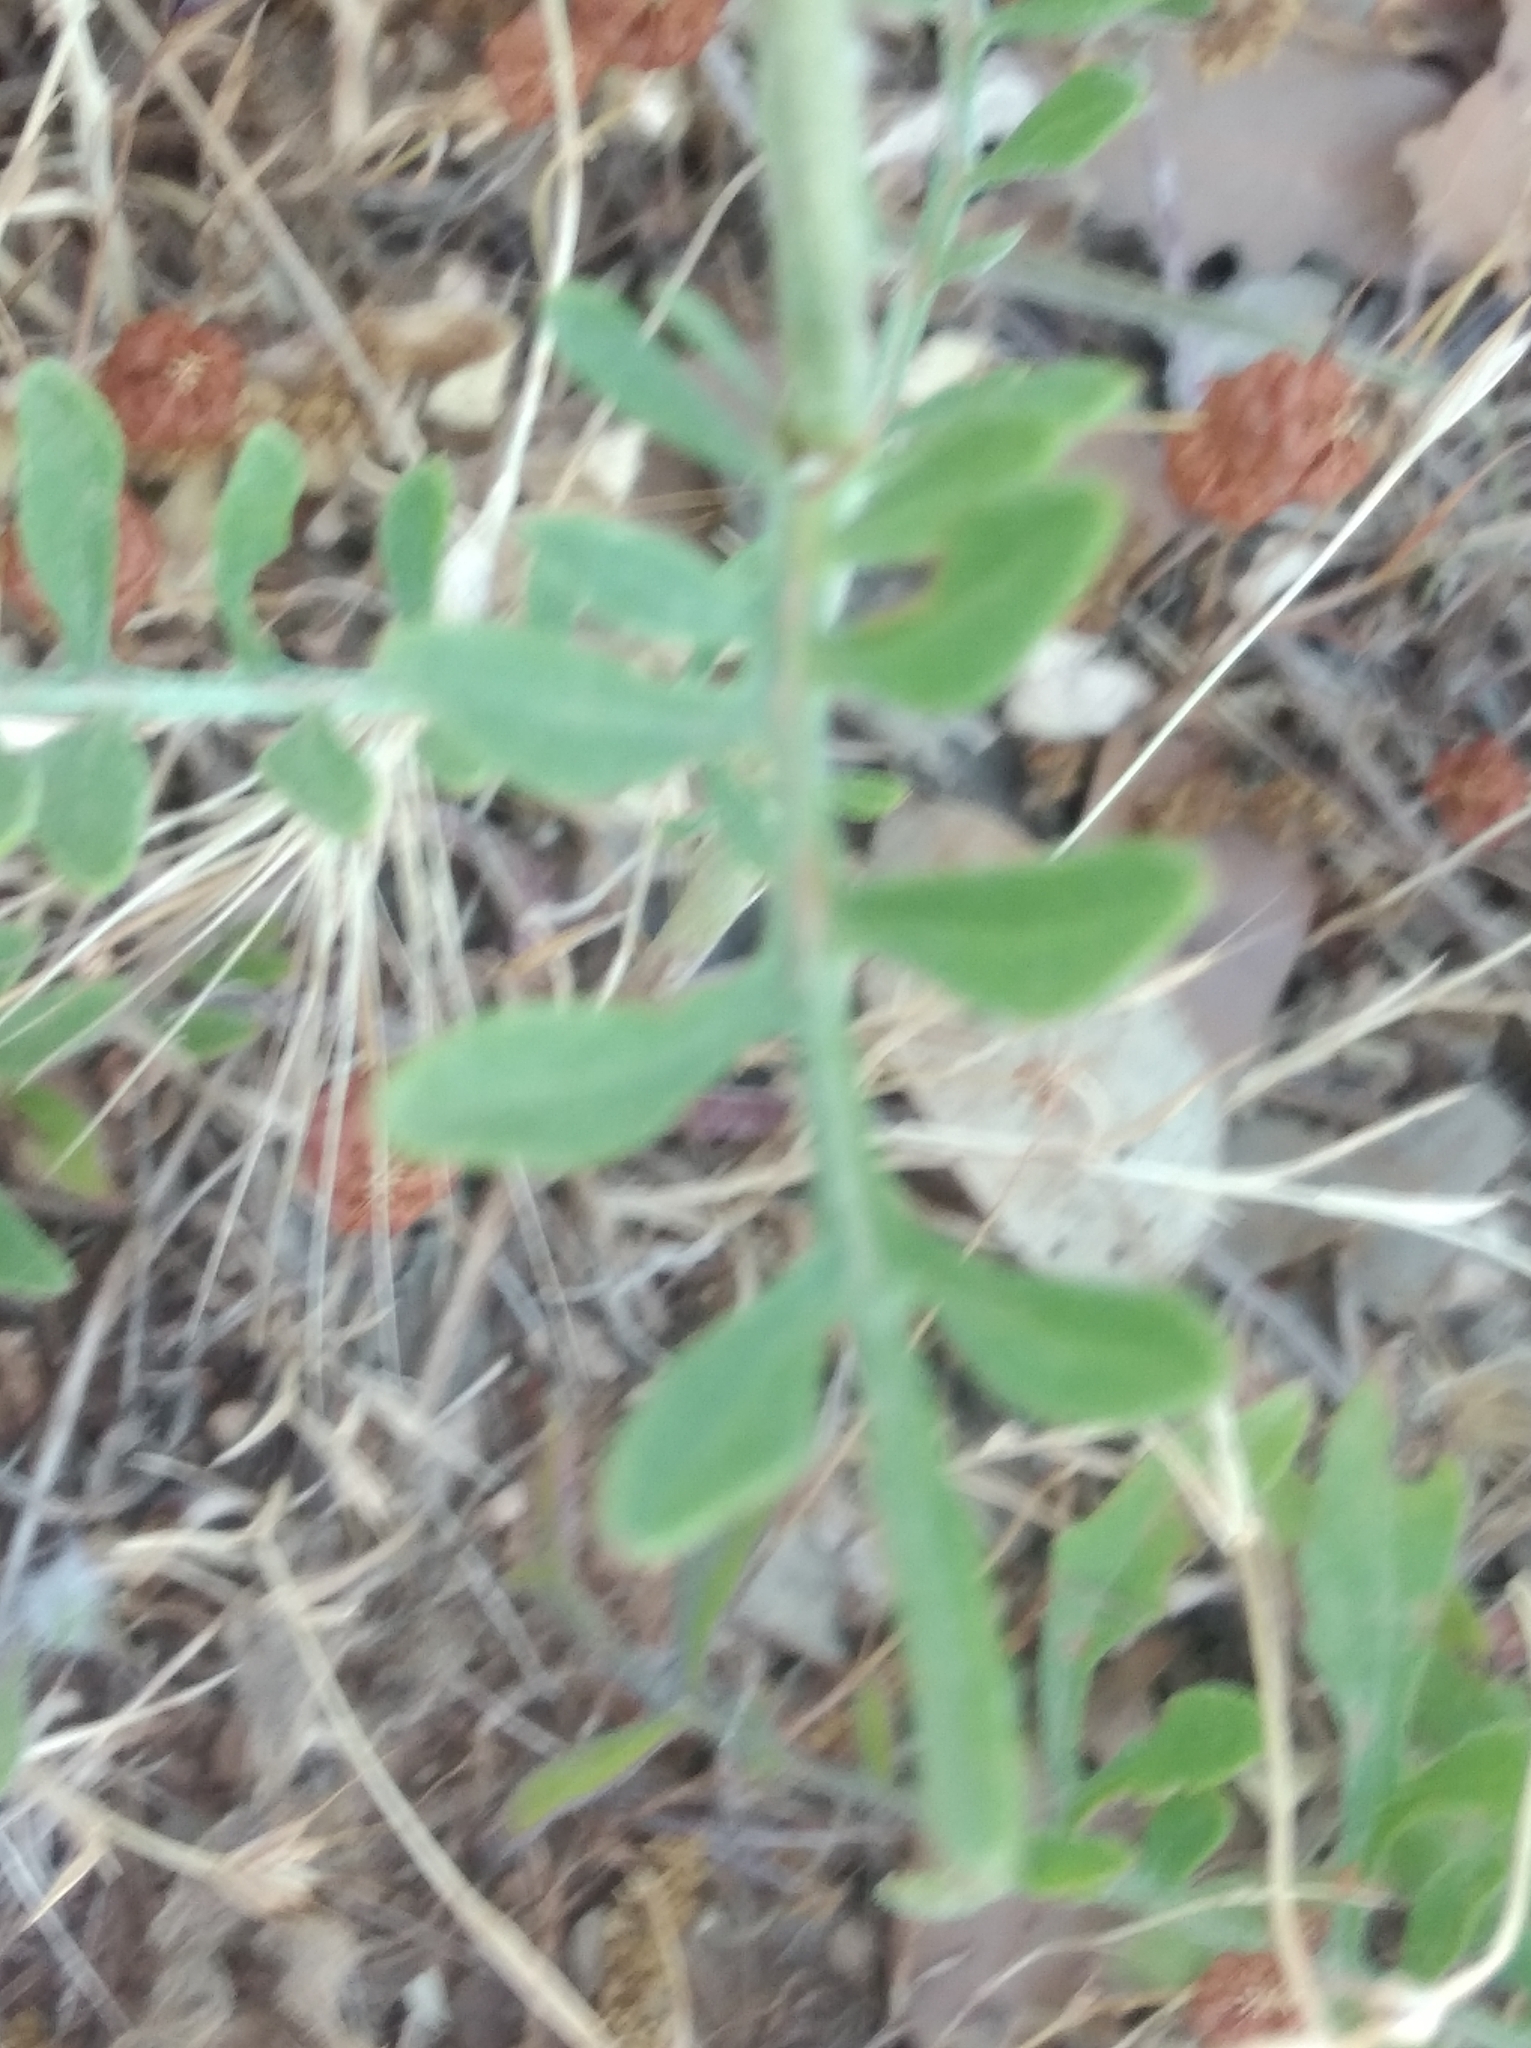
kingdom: Plantae
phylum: Tracheophyta
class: Magnoliopsida
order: Asterales
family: Asteraceae
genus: Centaurea
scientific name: Centaurea collina
